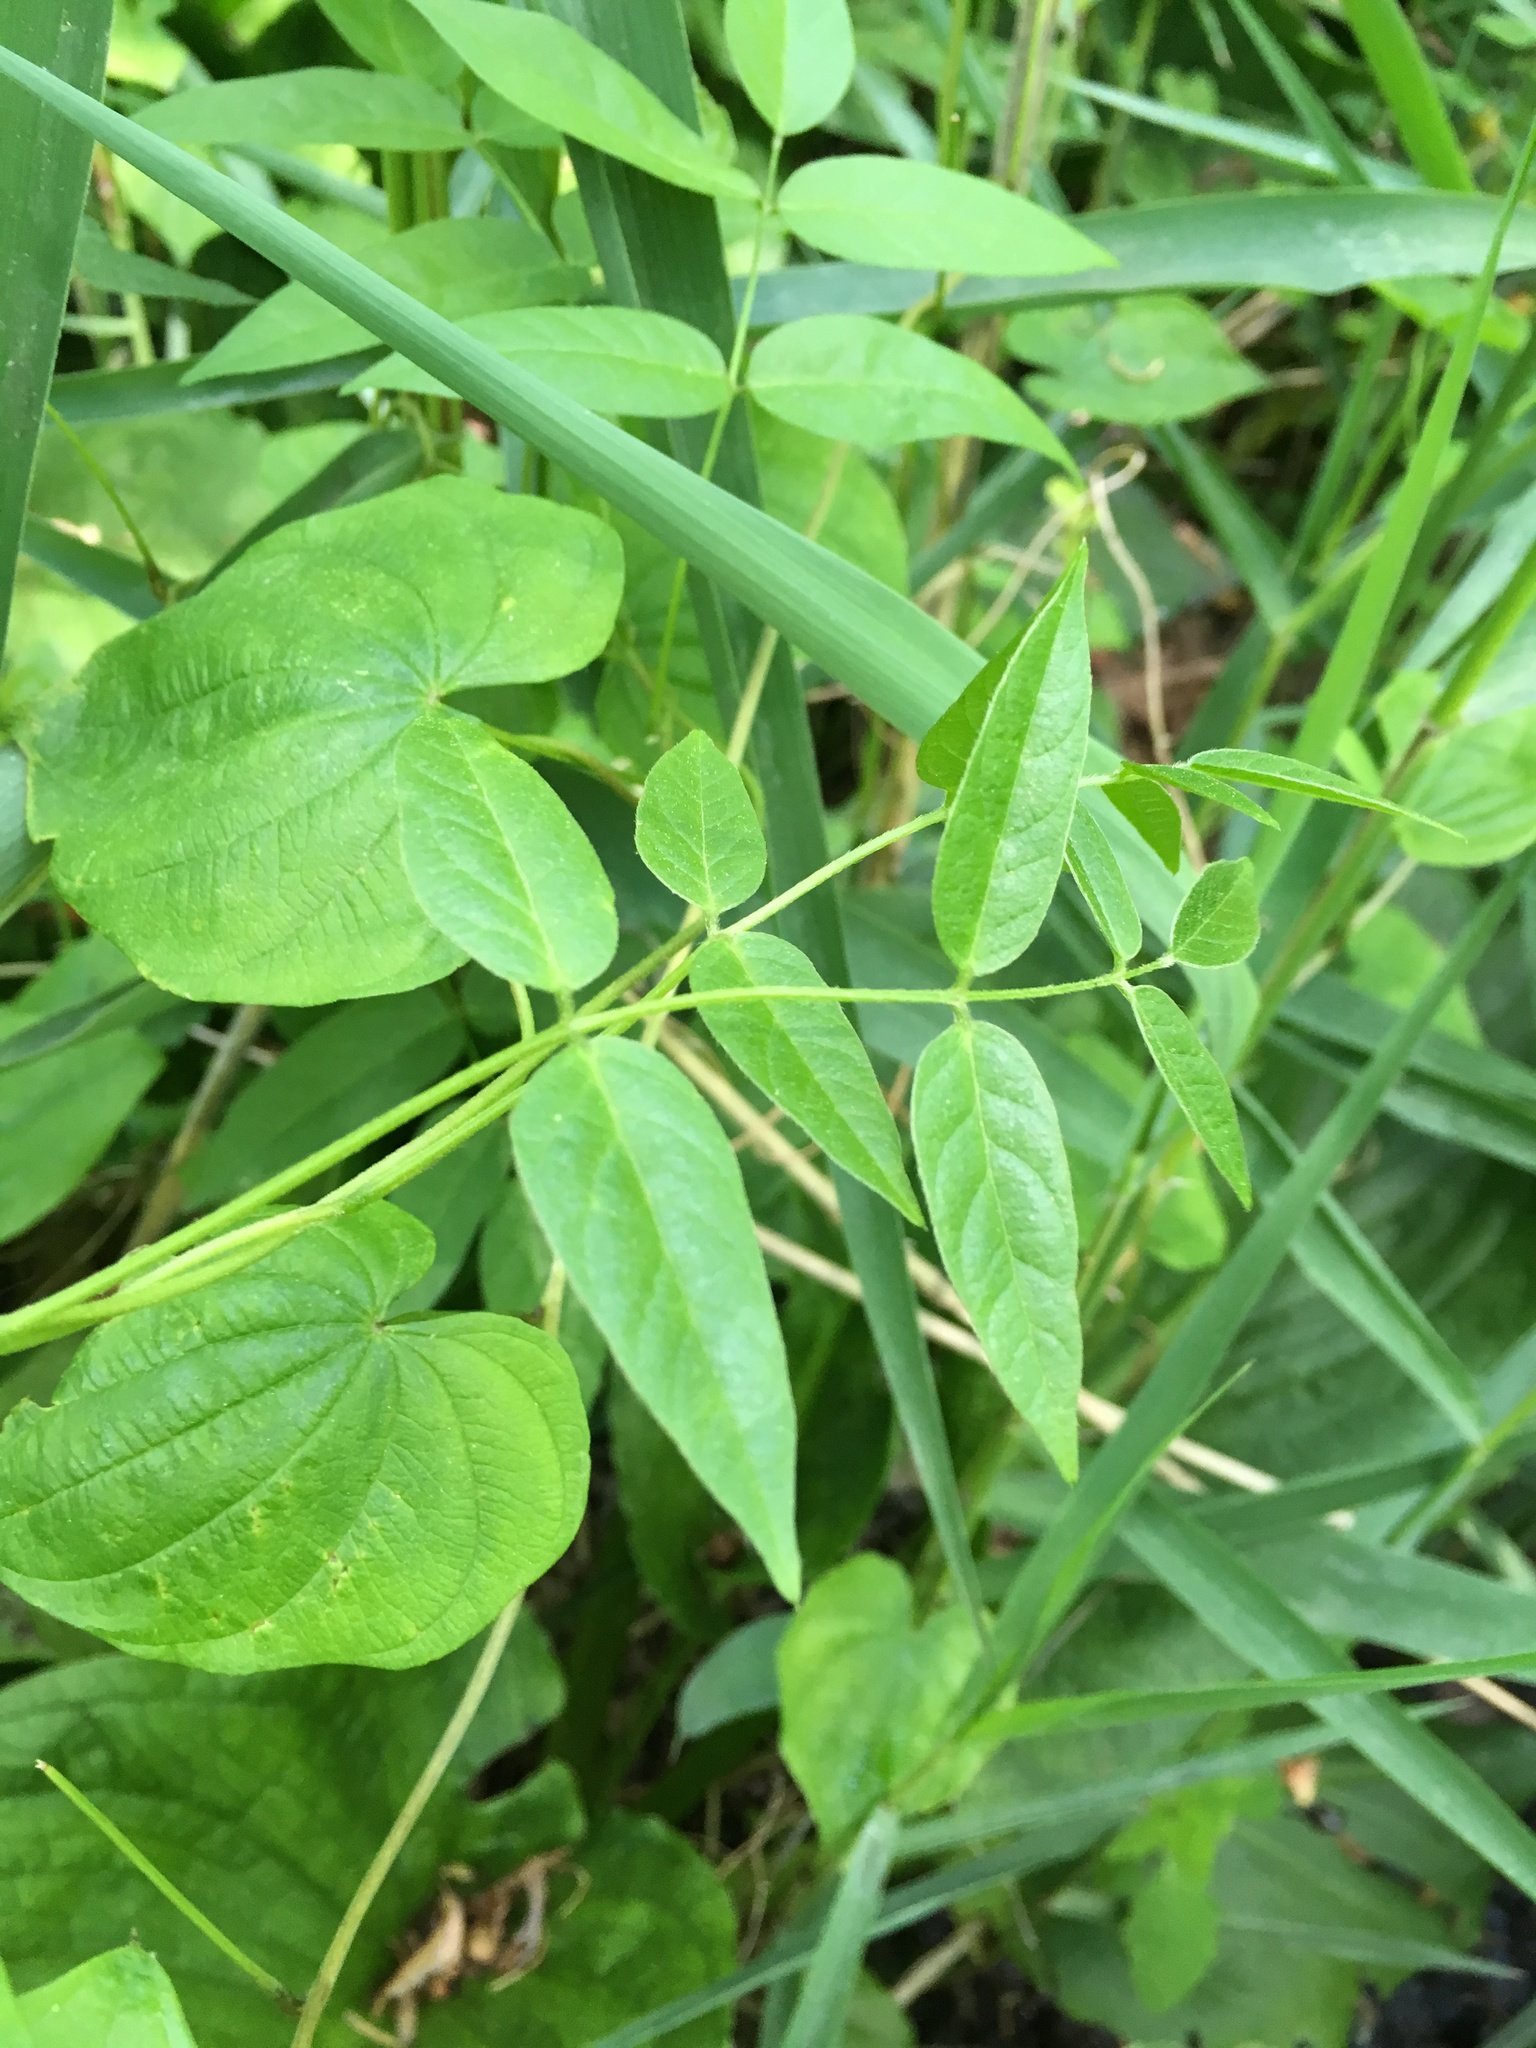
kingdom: Plantae
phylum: Tracheophyta
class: Magnoliopsida
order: Fabales
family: Fabaceae
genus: Apios
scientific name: Apios americana
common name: American potato-bean
